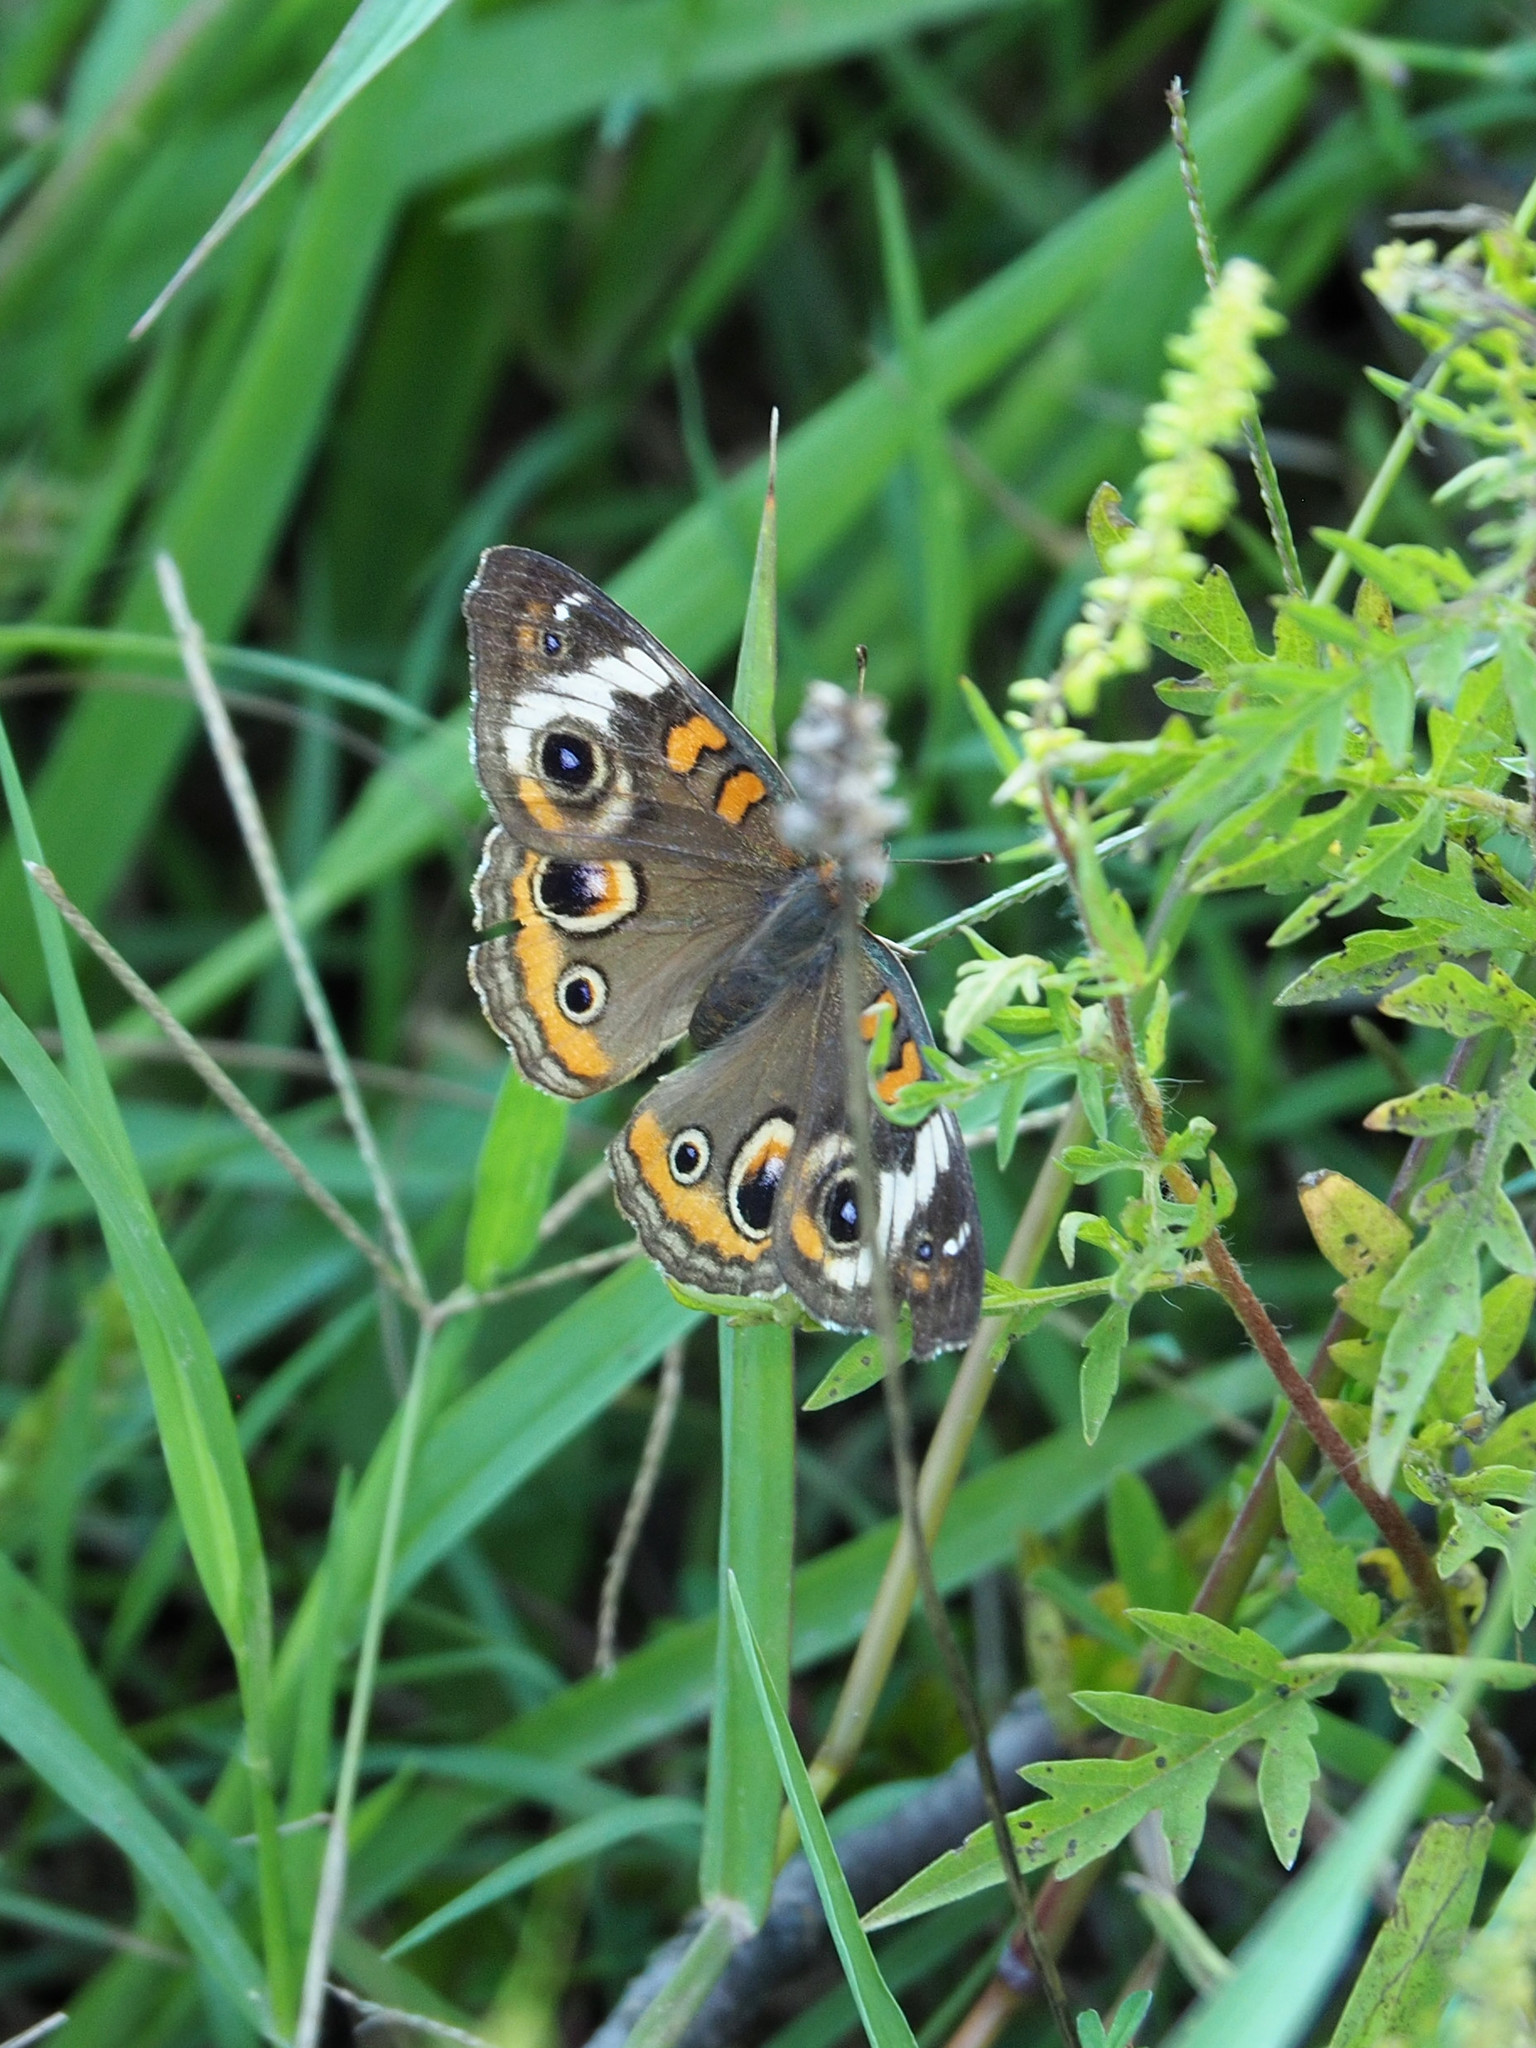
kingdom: Animalia
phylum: Arthropoda
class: Insecta
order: Lepidoptera
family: Nymphalidae
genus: Junonia
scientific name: Junonia coenia
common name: Common buckeye
